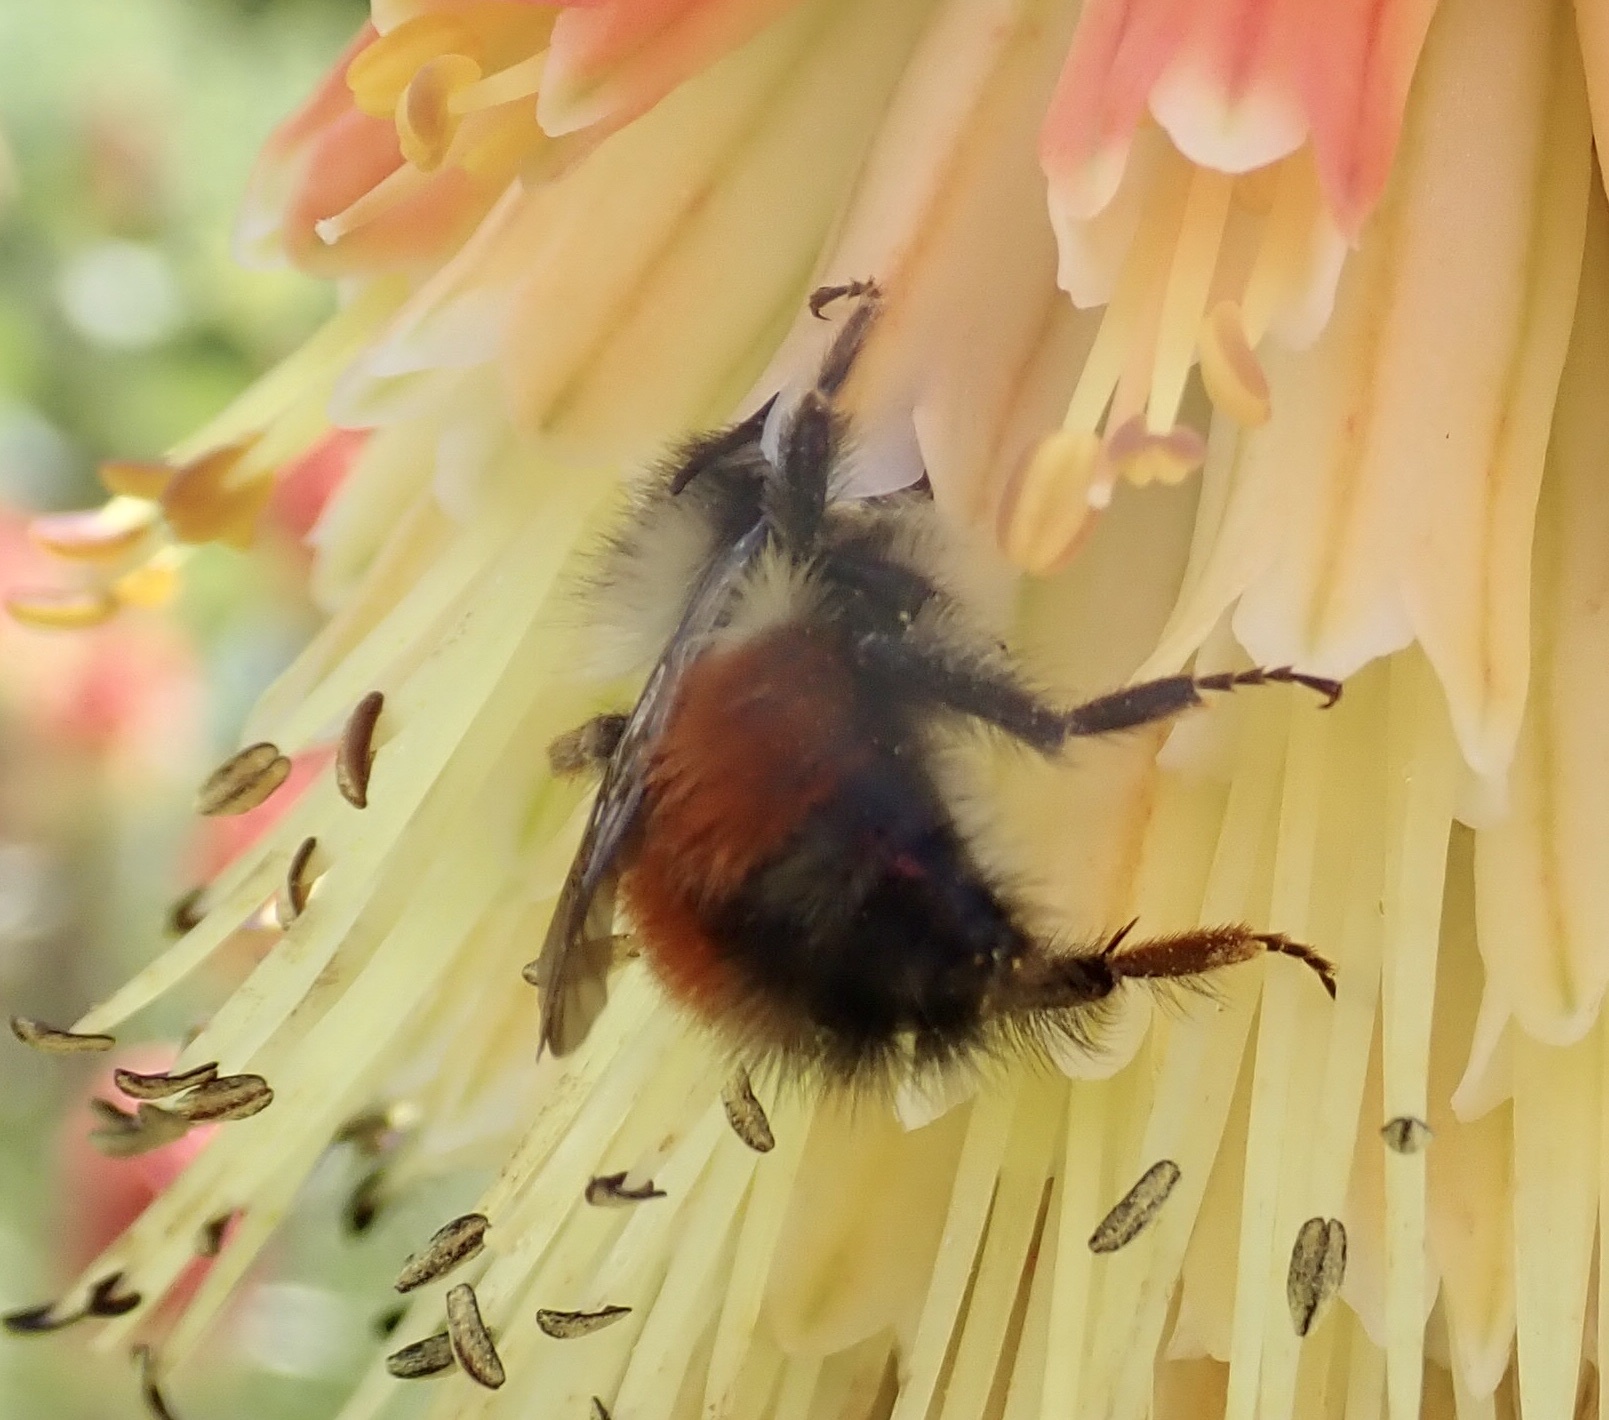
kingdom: Animalia
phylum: Arthropoda
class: Insecta
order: Hymenoptera
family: Apidae
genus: Bombus
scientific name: Bombus melanopygus
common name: Black tail bumble bee
